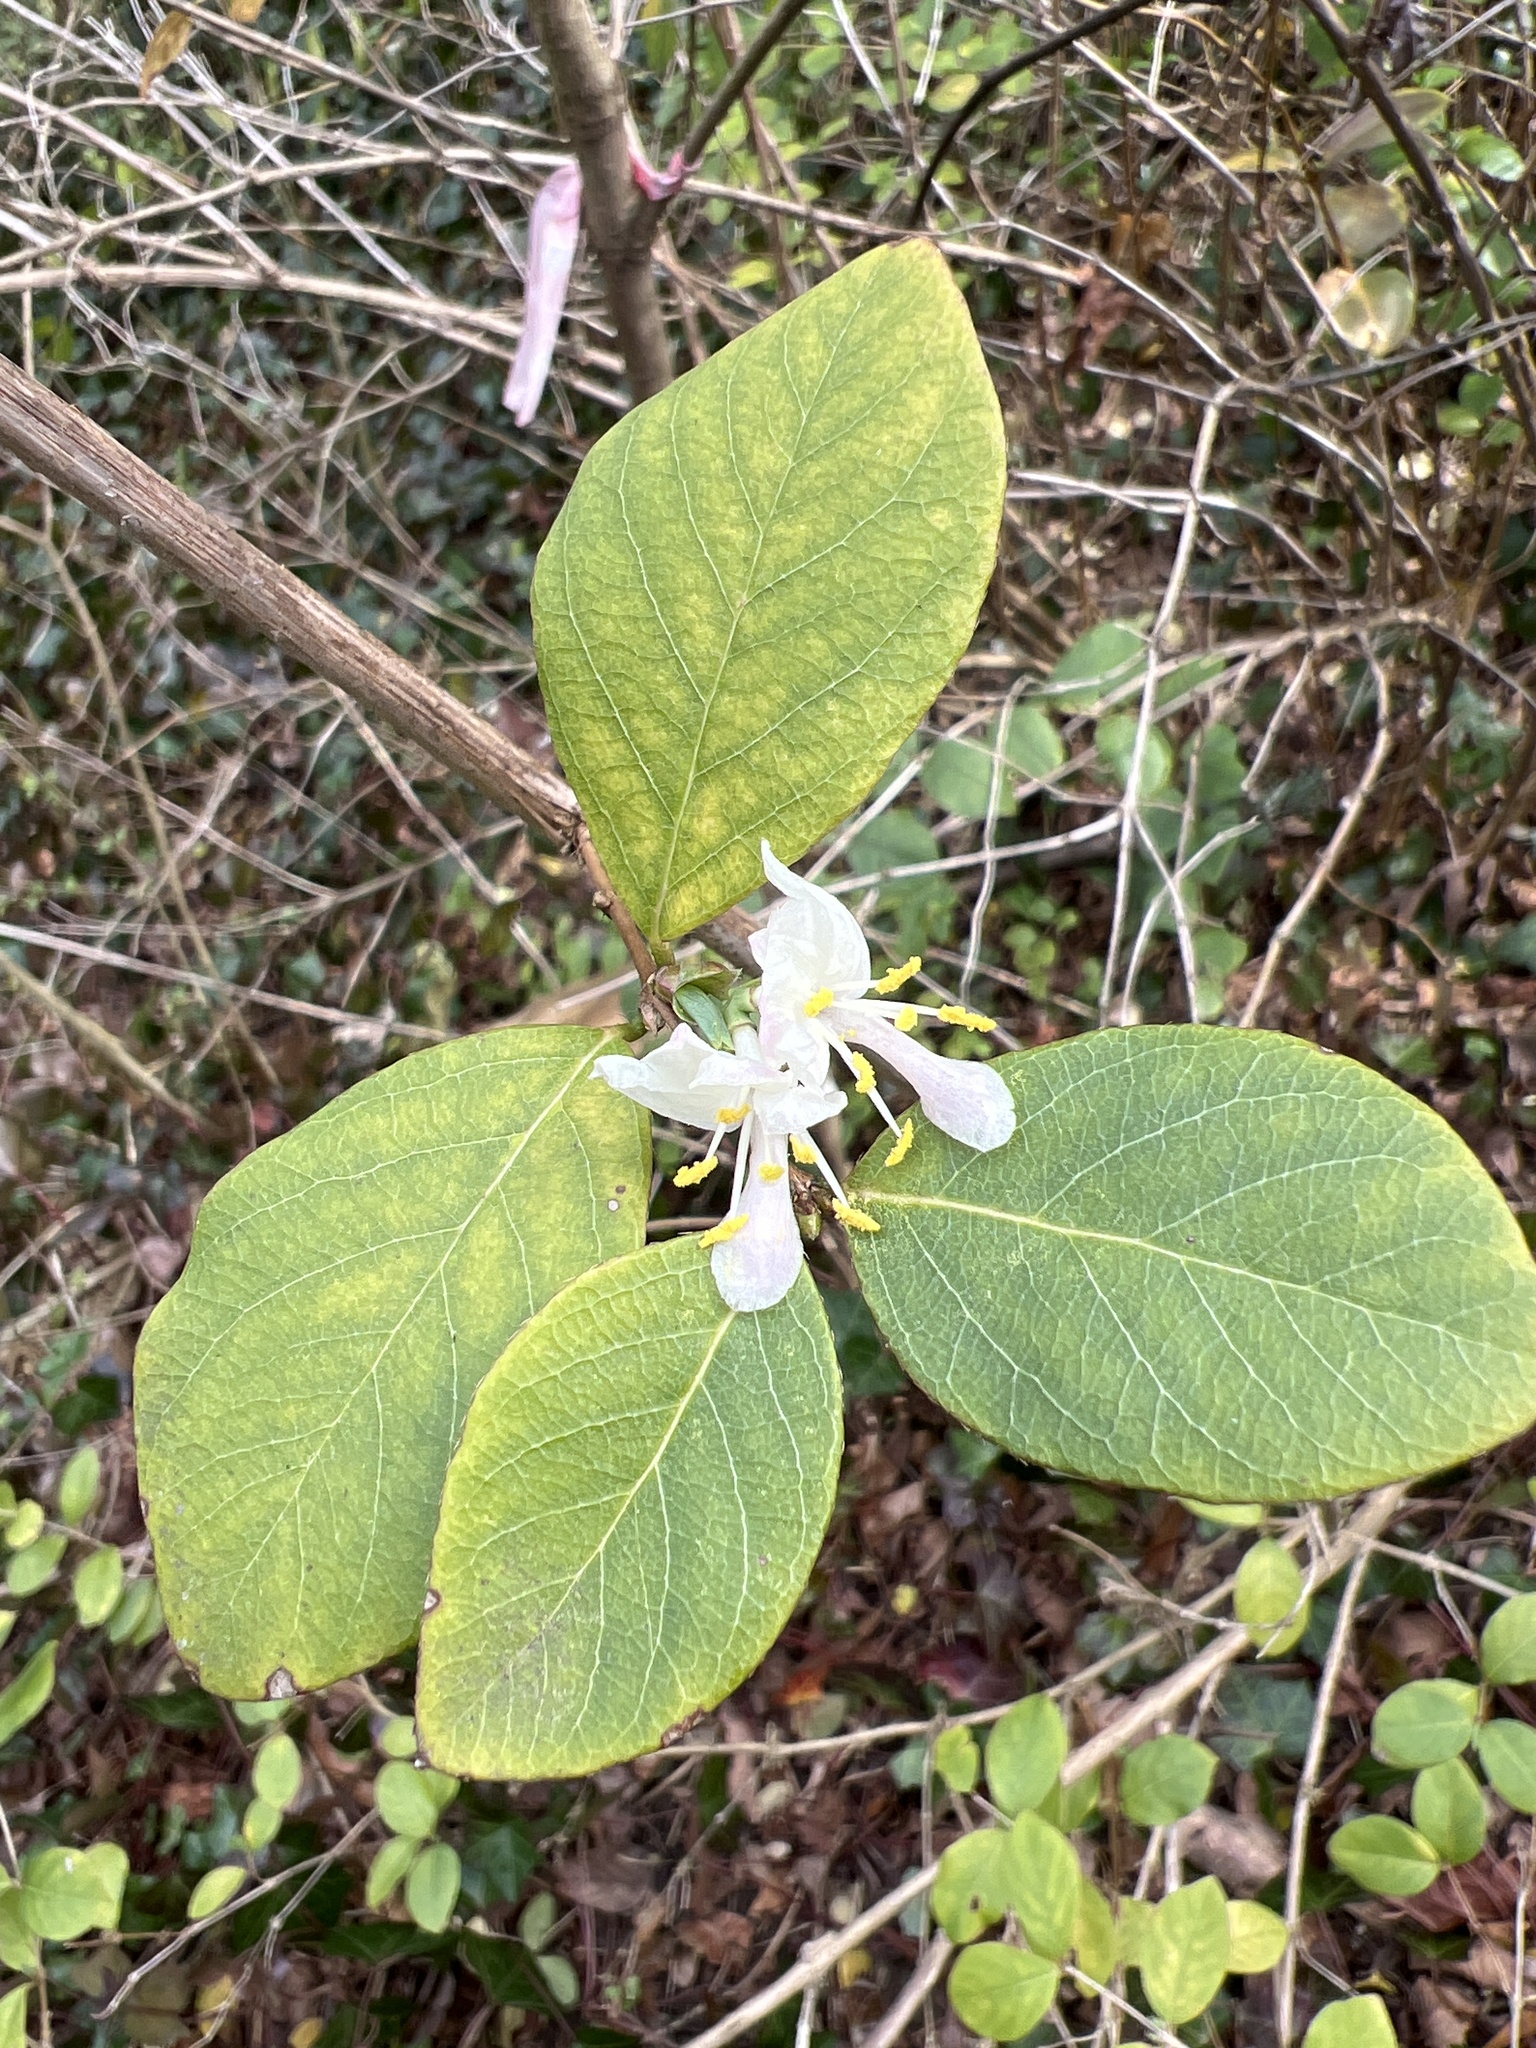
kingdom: Plantae
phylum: Tracheophyta
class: Magnoliopsida
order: Dipsacales
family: Caprifoliaceae
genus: Lonicera
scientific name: Lonicera fragrantissima
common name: Fragrant honeysuckle
